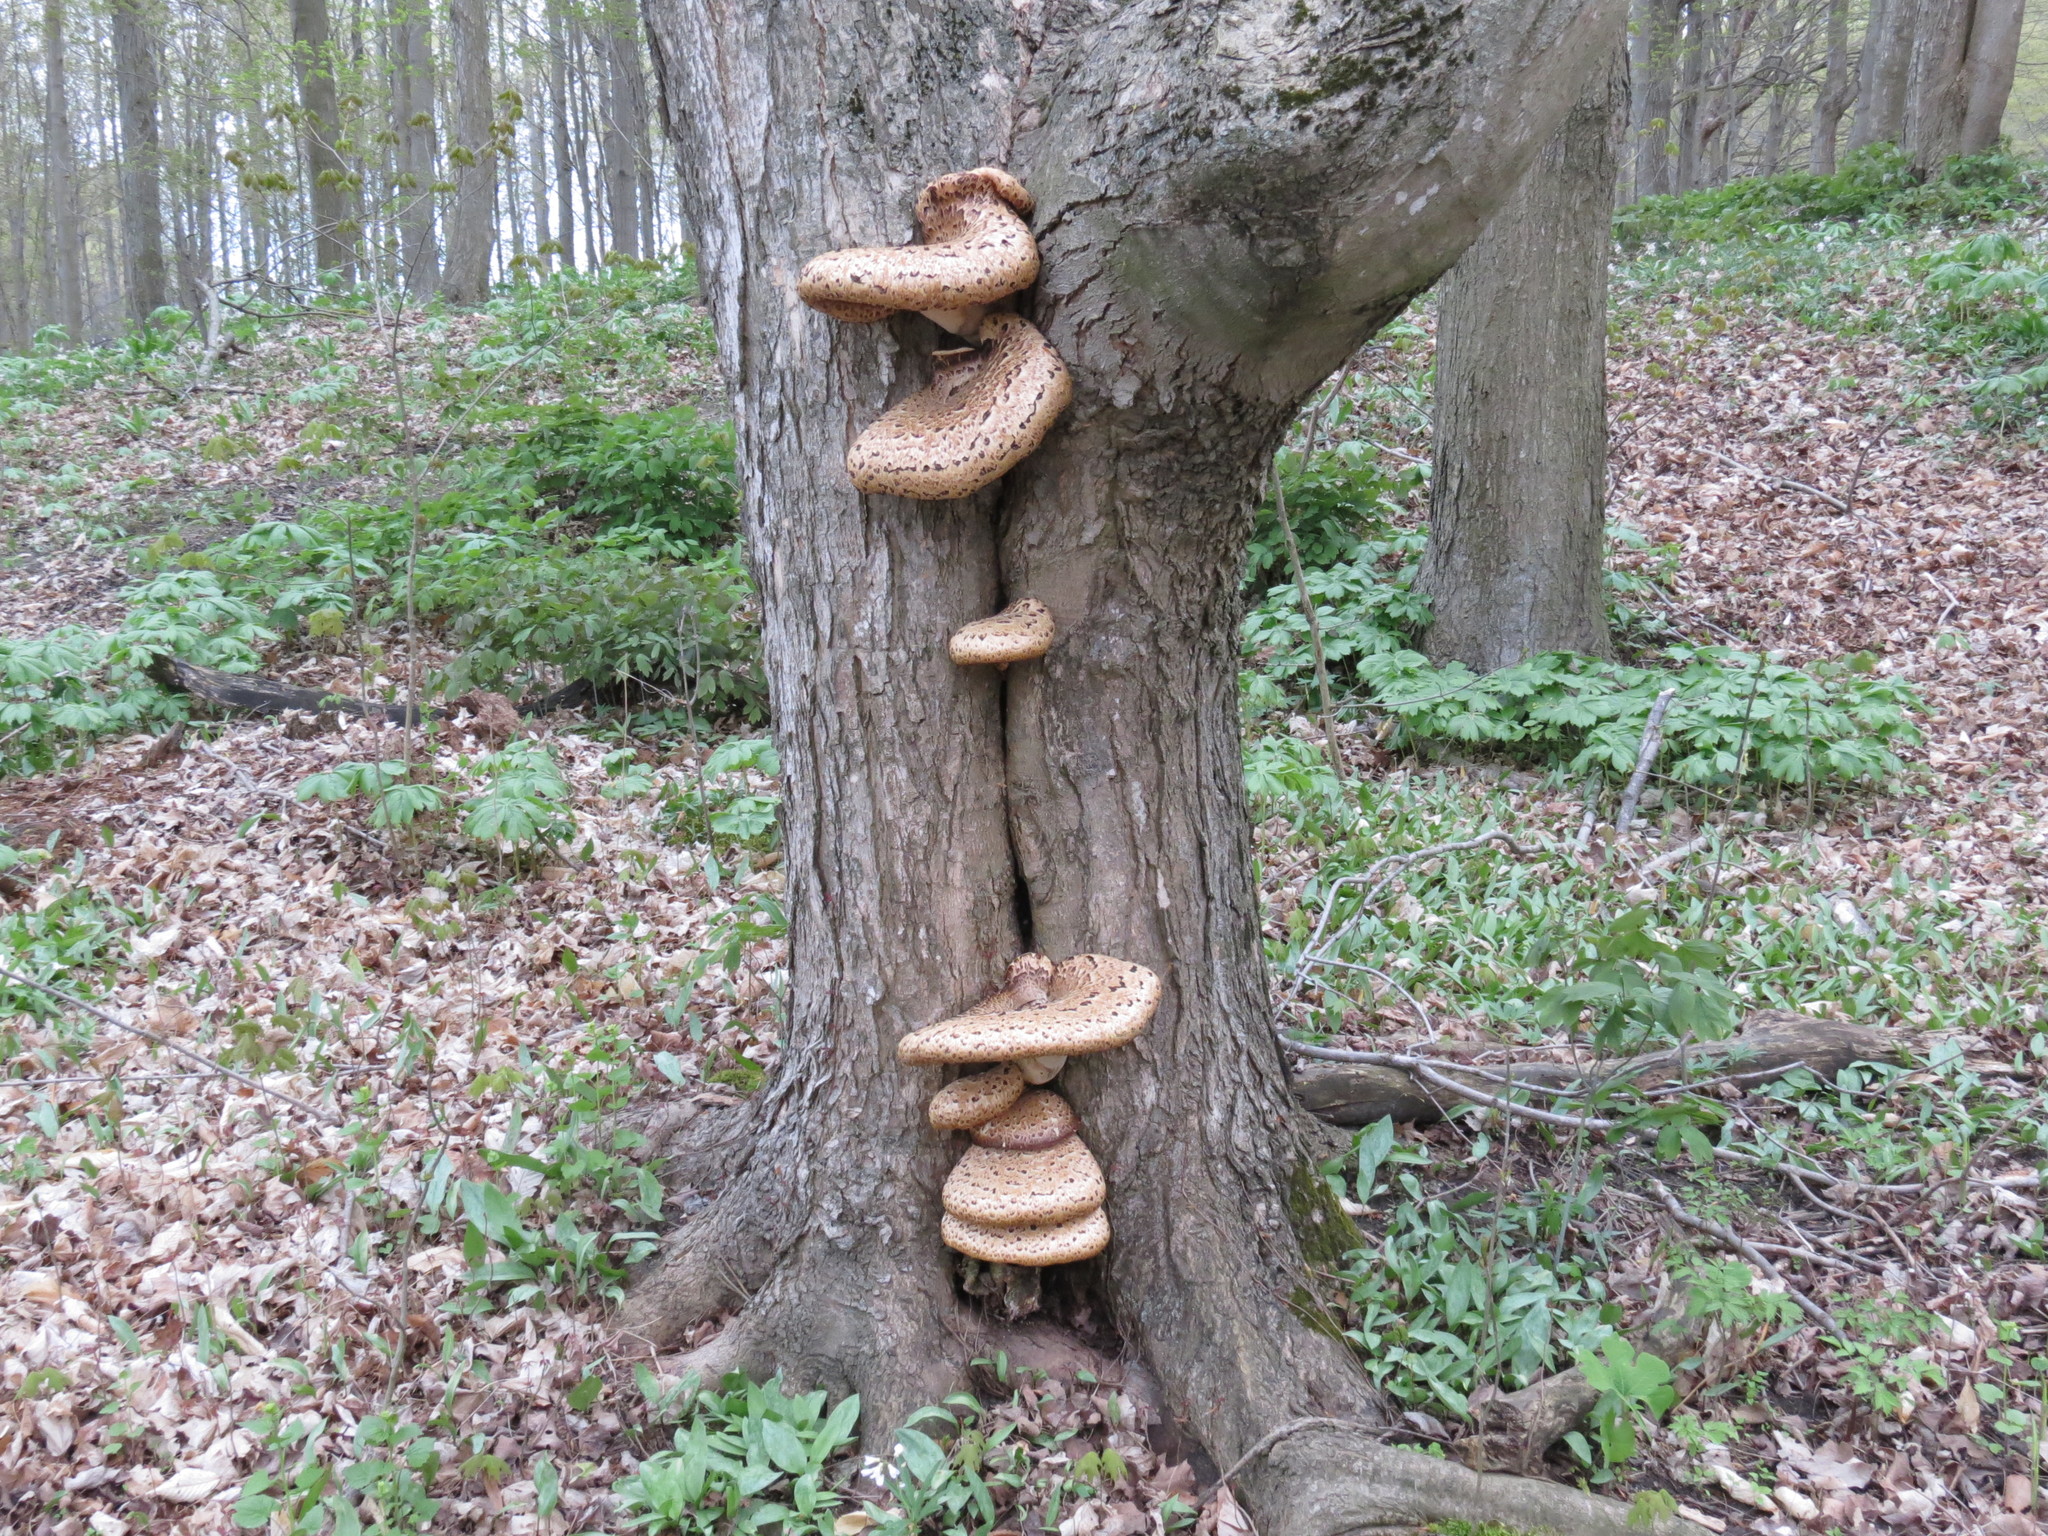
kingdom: Fungi
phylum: Basidiomycota
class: Agaricomycetes
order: Polyporales
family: Polyporaceae
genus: Cerioporus
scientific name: Cerioporus squamosus
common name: Dryad's saddle
